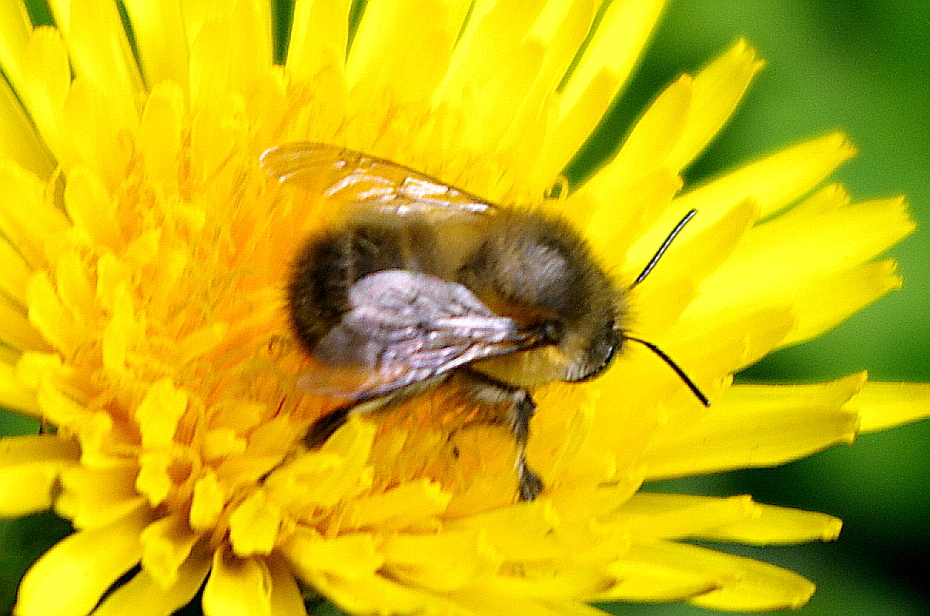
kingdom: Animalia
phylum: Arthropoda
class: Insecta
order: Hymenoptera
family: Apidae
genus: Anthophora
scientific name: Anthophora plumipes
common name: Hairy-footed flower bee
